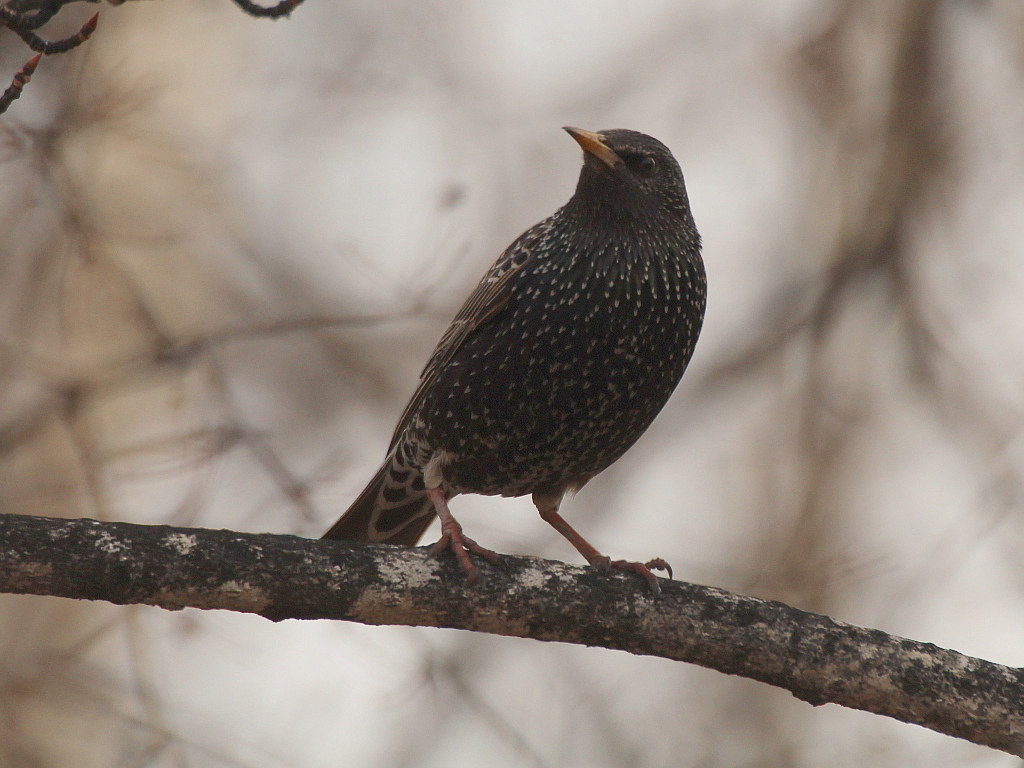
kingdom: Animalia
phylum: Chordata
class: Aves
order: Passeriformes
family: Sturnidae
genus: Sturnus
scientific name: Sturnus vulgaris
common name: Common starling
